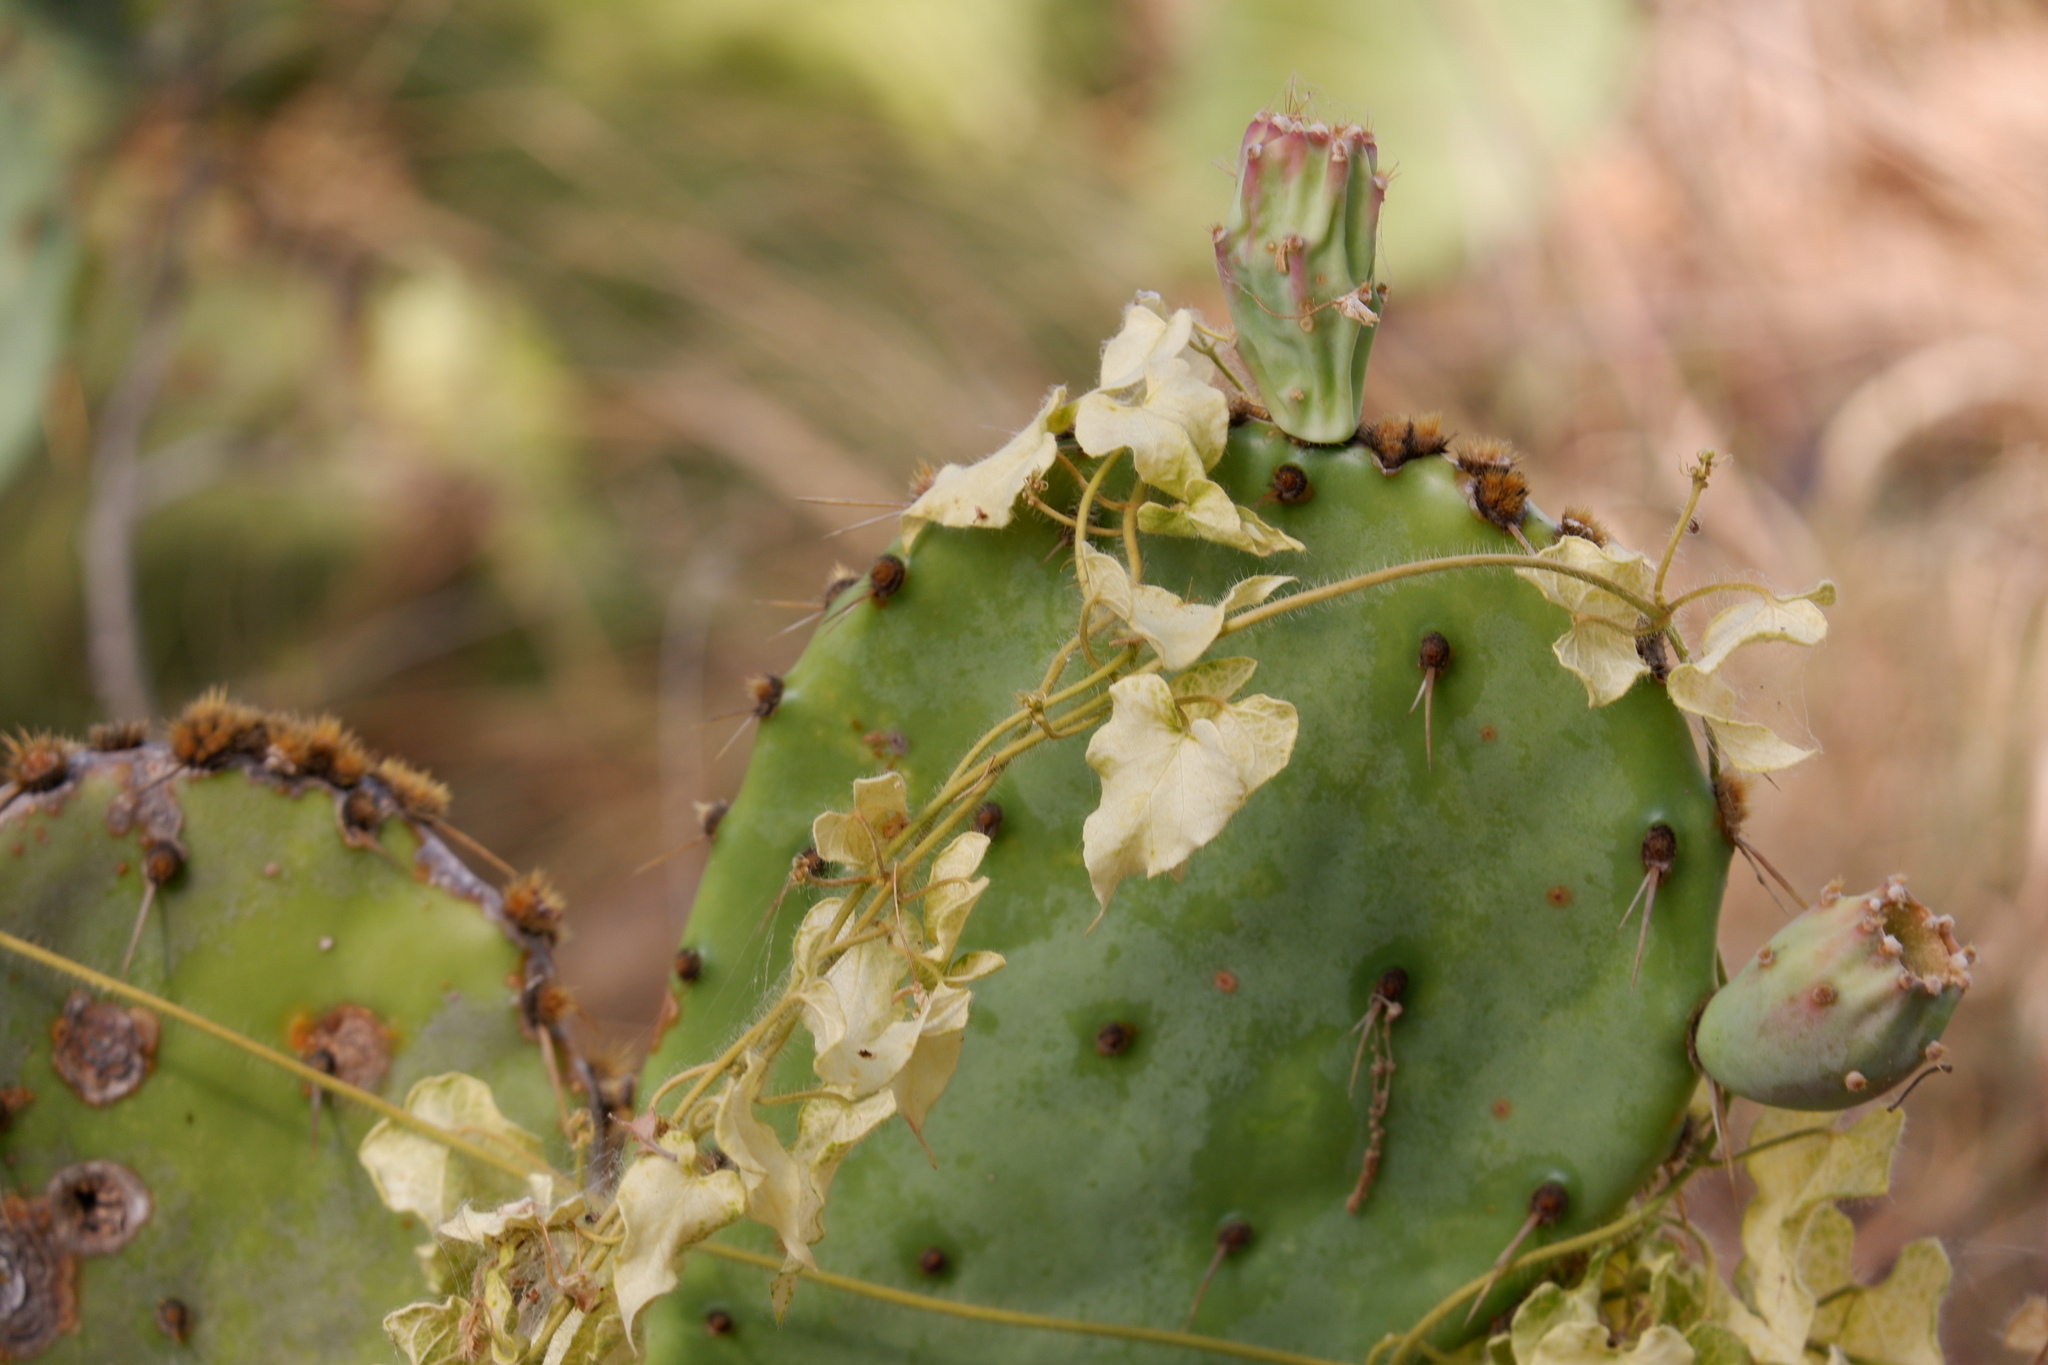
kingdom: Plantae
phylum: Tracheophyta
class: Magnoliopsida
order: Gentianales
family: Apocynaceae
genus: Dictyanthus
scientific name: Dictyanthus reticulatus
